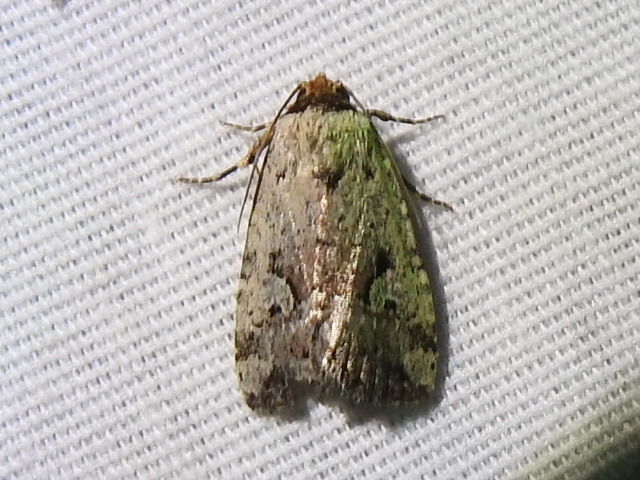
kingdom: Animalia
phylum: Arthropoda
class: Insecta
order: Lepidoptera
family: Noctuidae
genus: Elaphria
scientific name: Elaphria festivoides
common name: Festive midget
